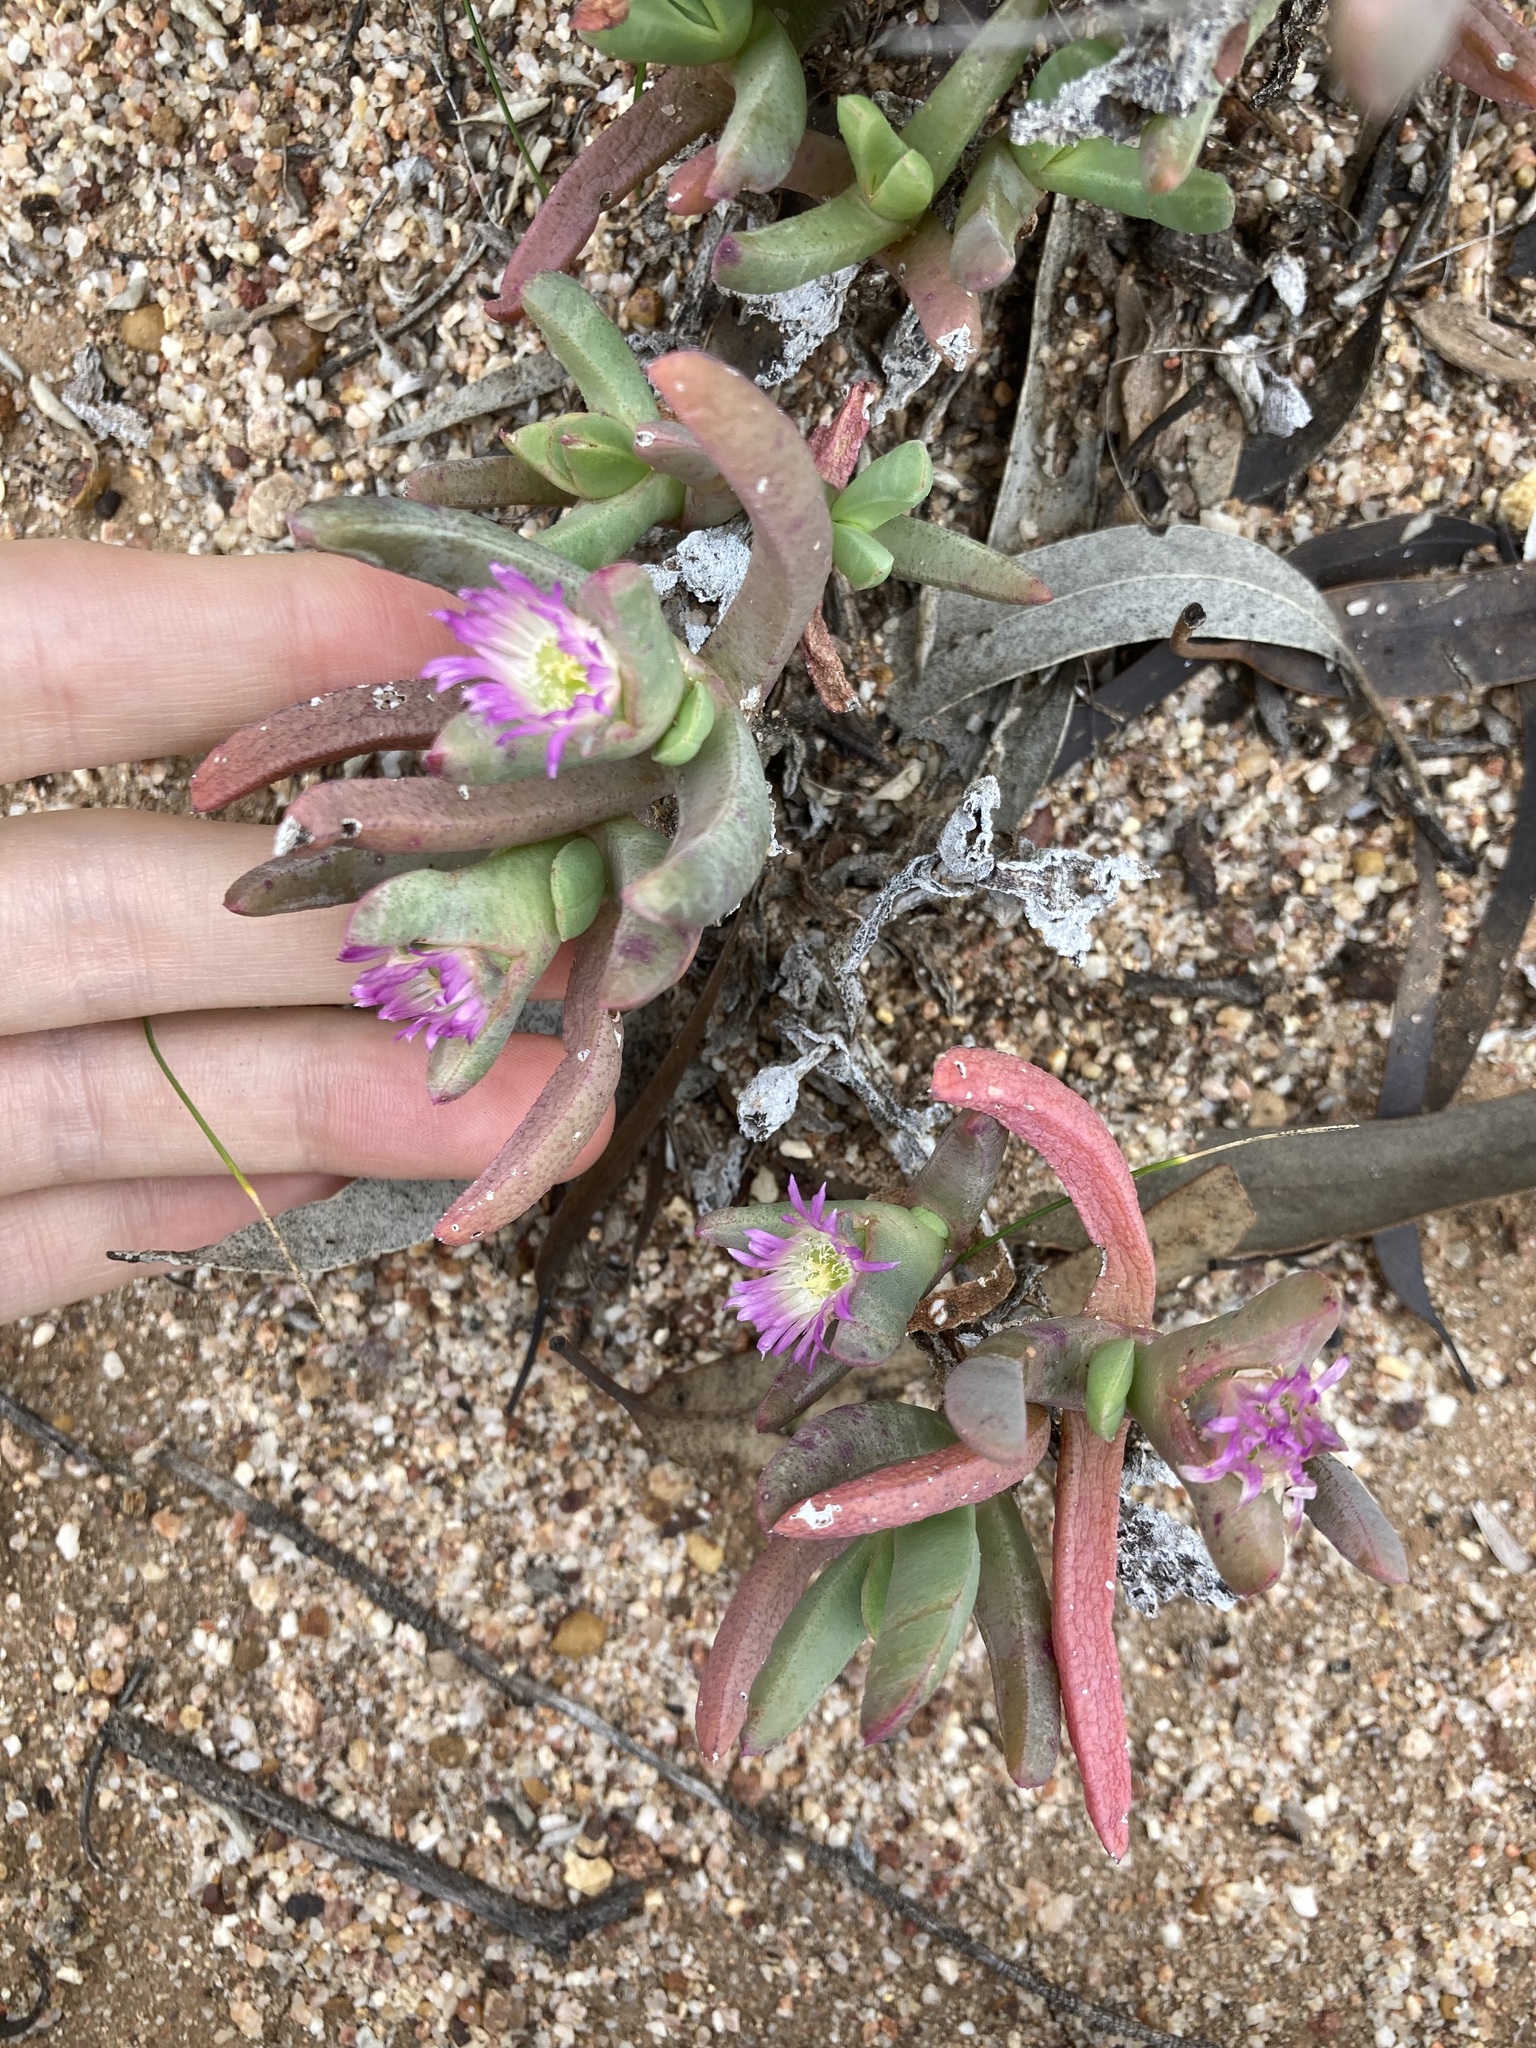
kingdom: Plantae
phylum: Tracheophyta
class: Magnoliopsida
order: Caryophyllales
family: Aizoaceae
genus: Carpobrotus
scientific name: Carpobrotus modestus
